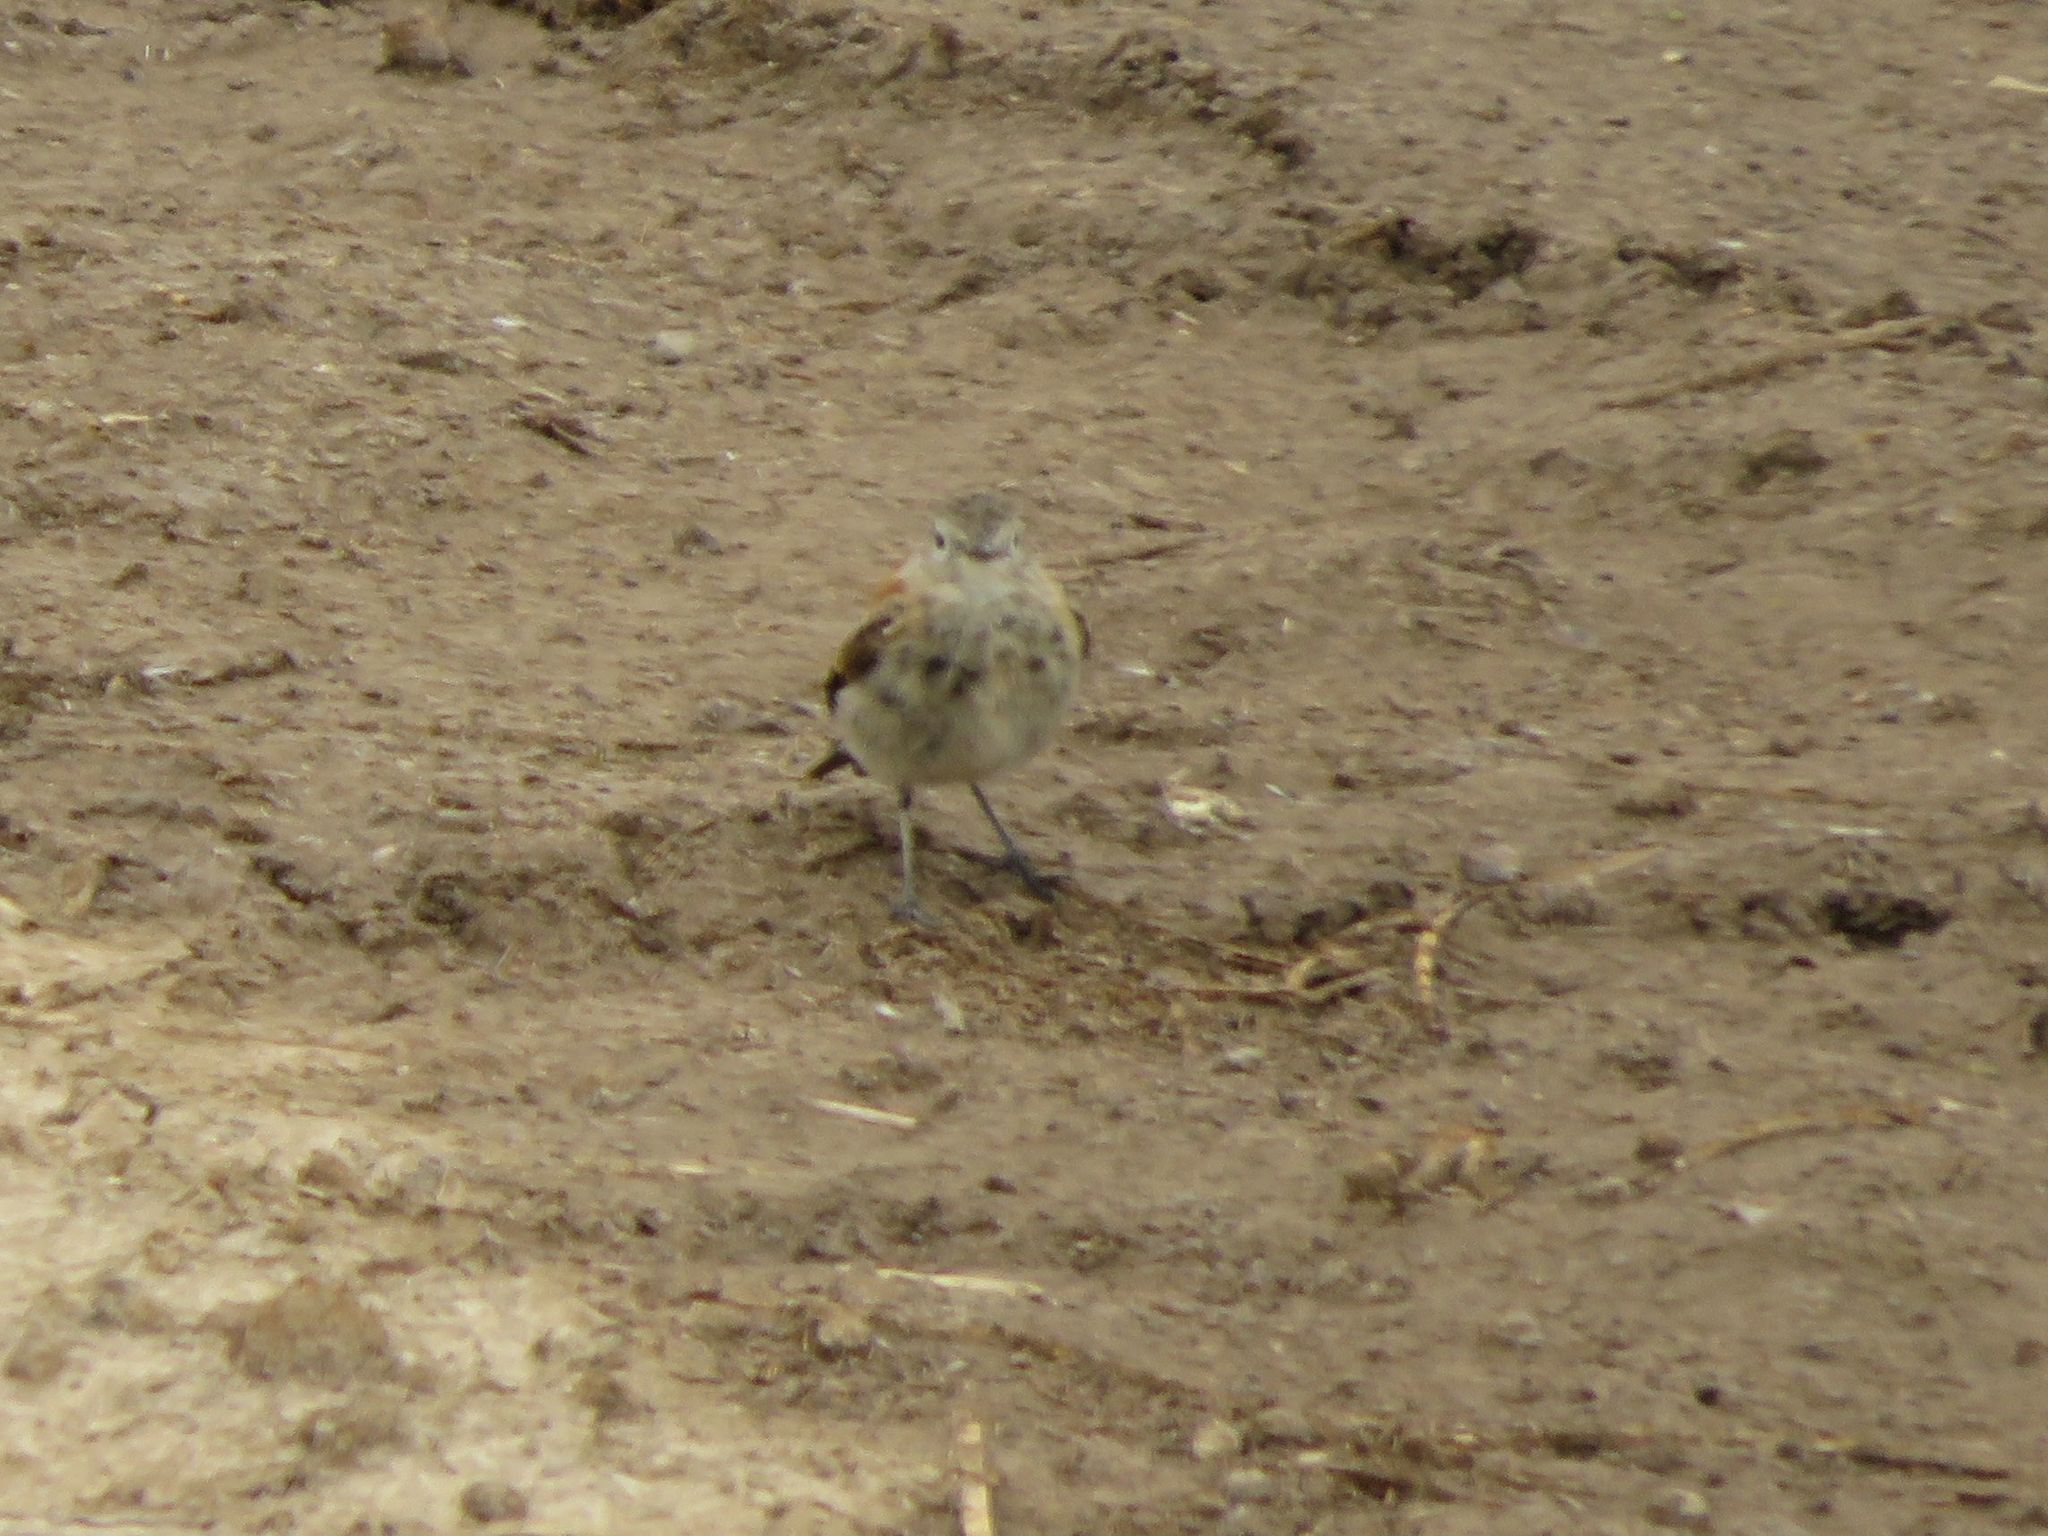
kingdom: Animalia
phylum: Chordata
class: Aves
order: Passeriformes
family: Tyrannidae
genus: Lessonia
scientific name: Lessonia rufa
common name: Austral negrito
